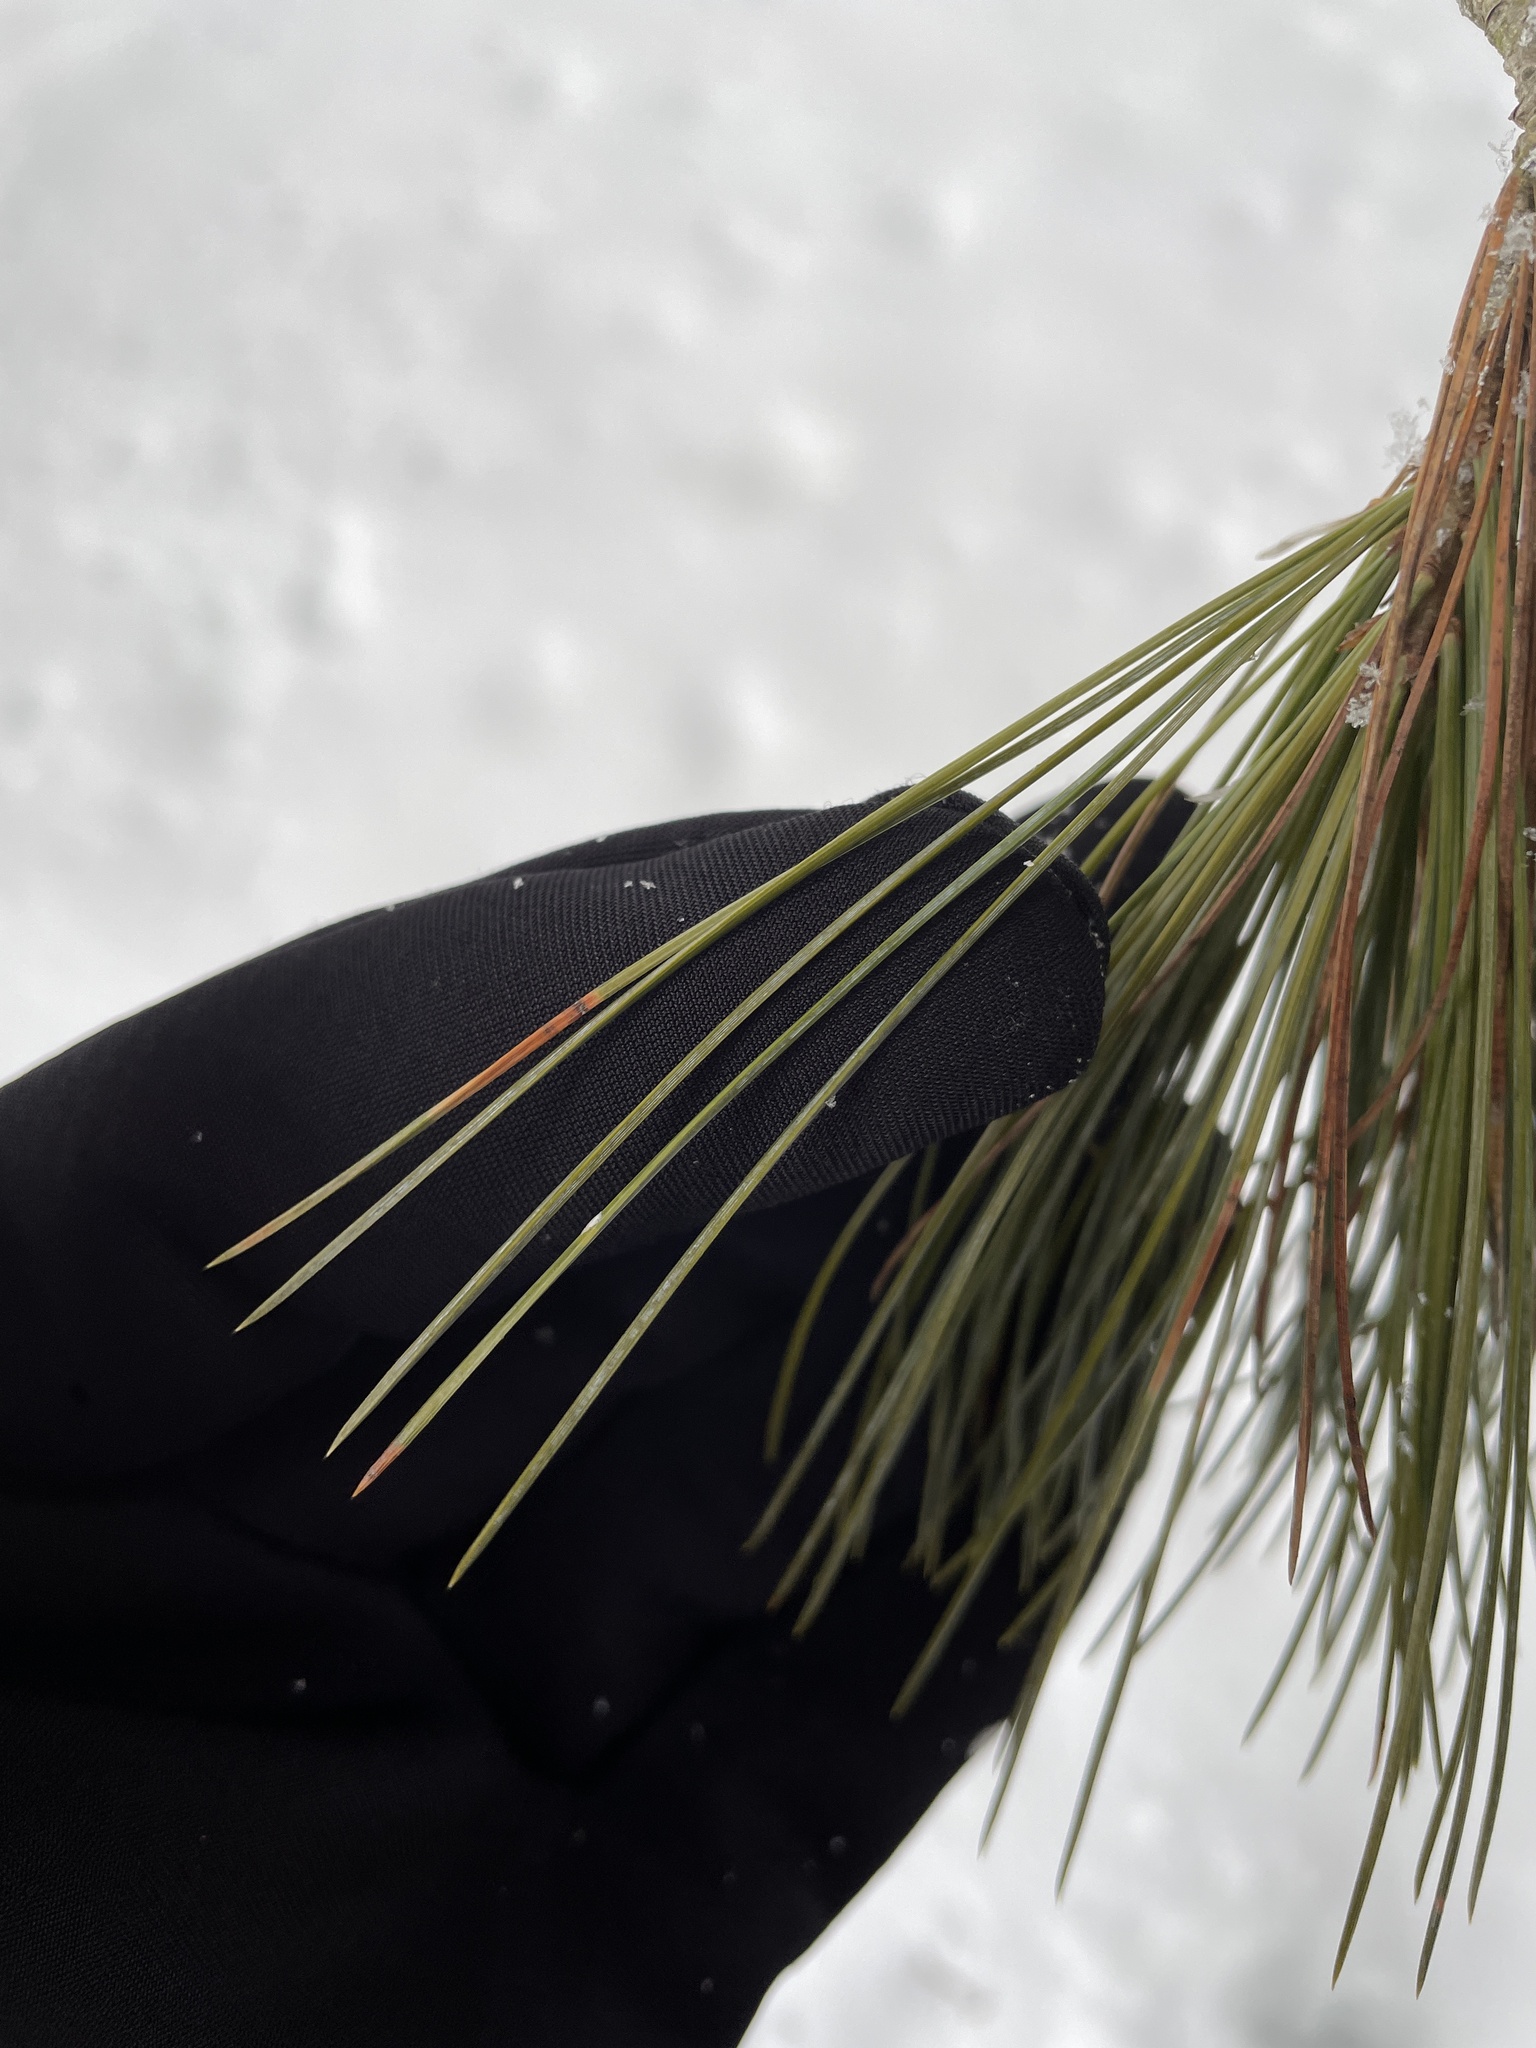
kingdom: Plantae
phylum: Tracheophyta
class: Pinopsida
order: Pinales
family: Pinaceae
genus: Pinus
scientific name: Pinus strobus
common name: Weymouth pine
